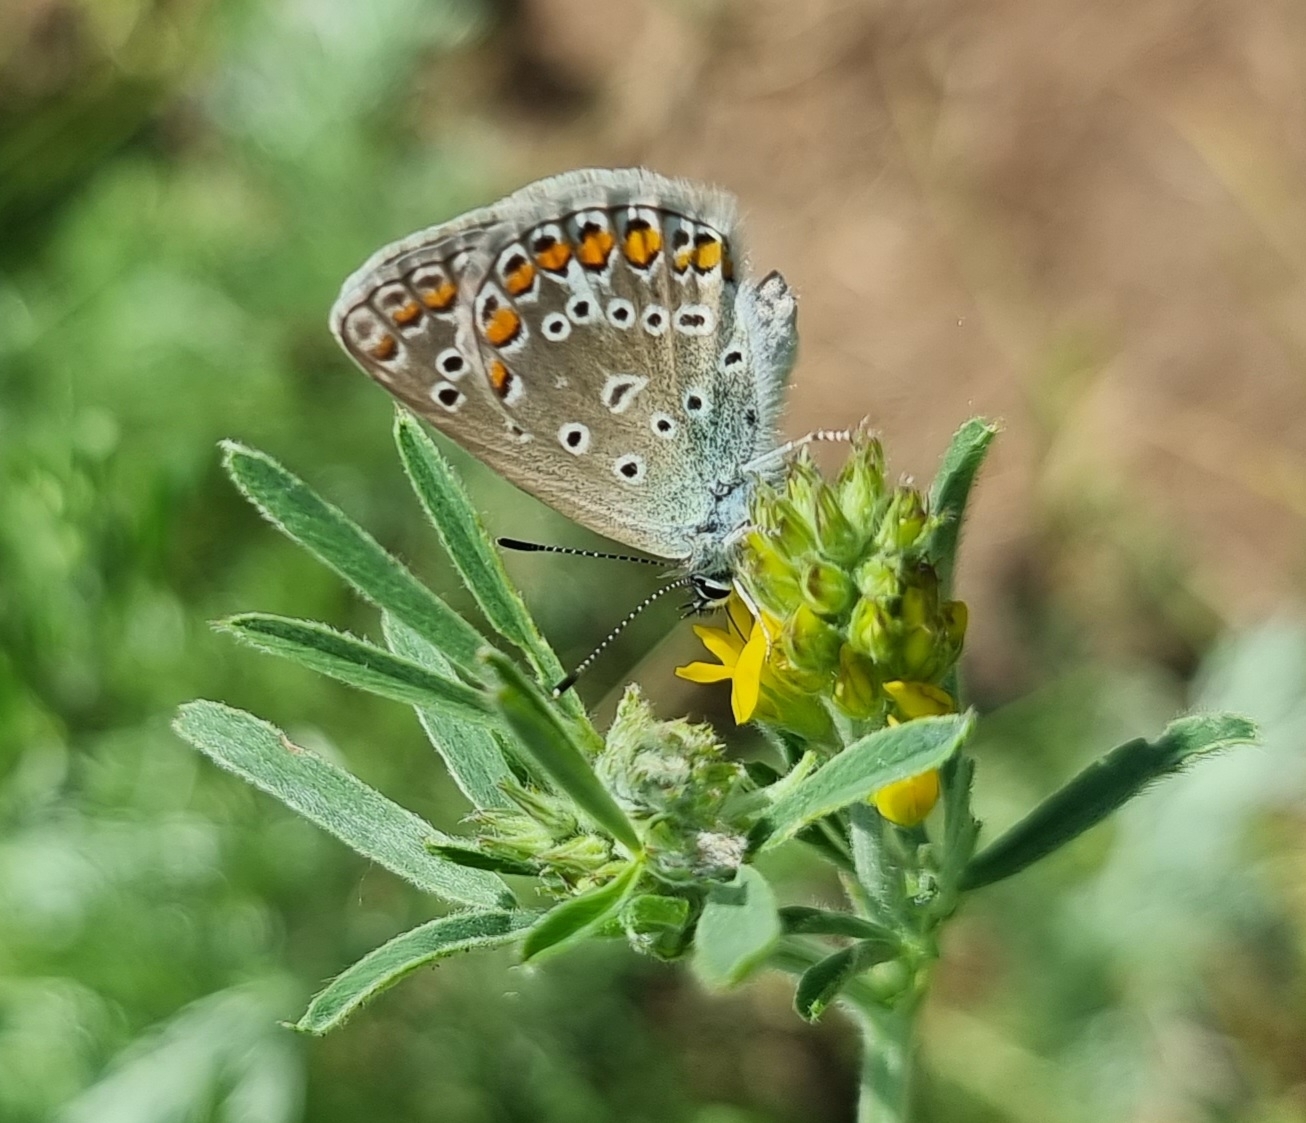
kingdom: Animalia
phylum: Arthropoda
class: Insecta
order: Lepidoptera
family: Lycaenidae
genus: Polyommatus
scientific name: Polyommatus icarus
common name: Common blue
